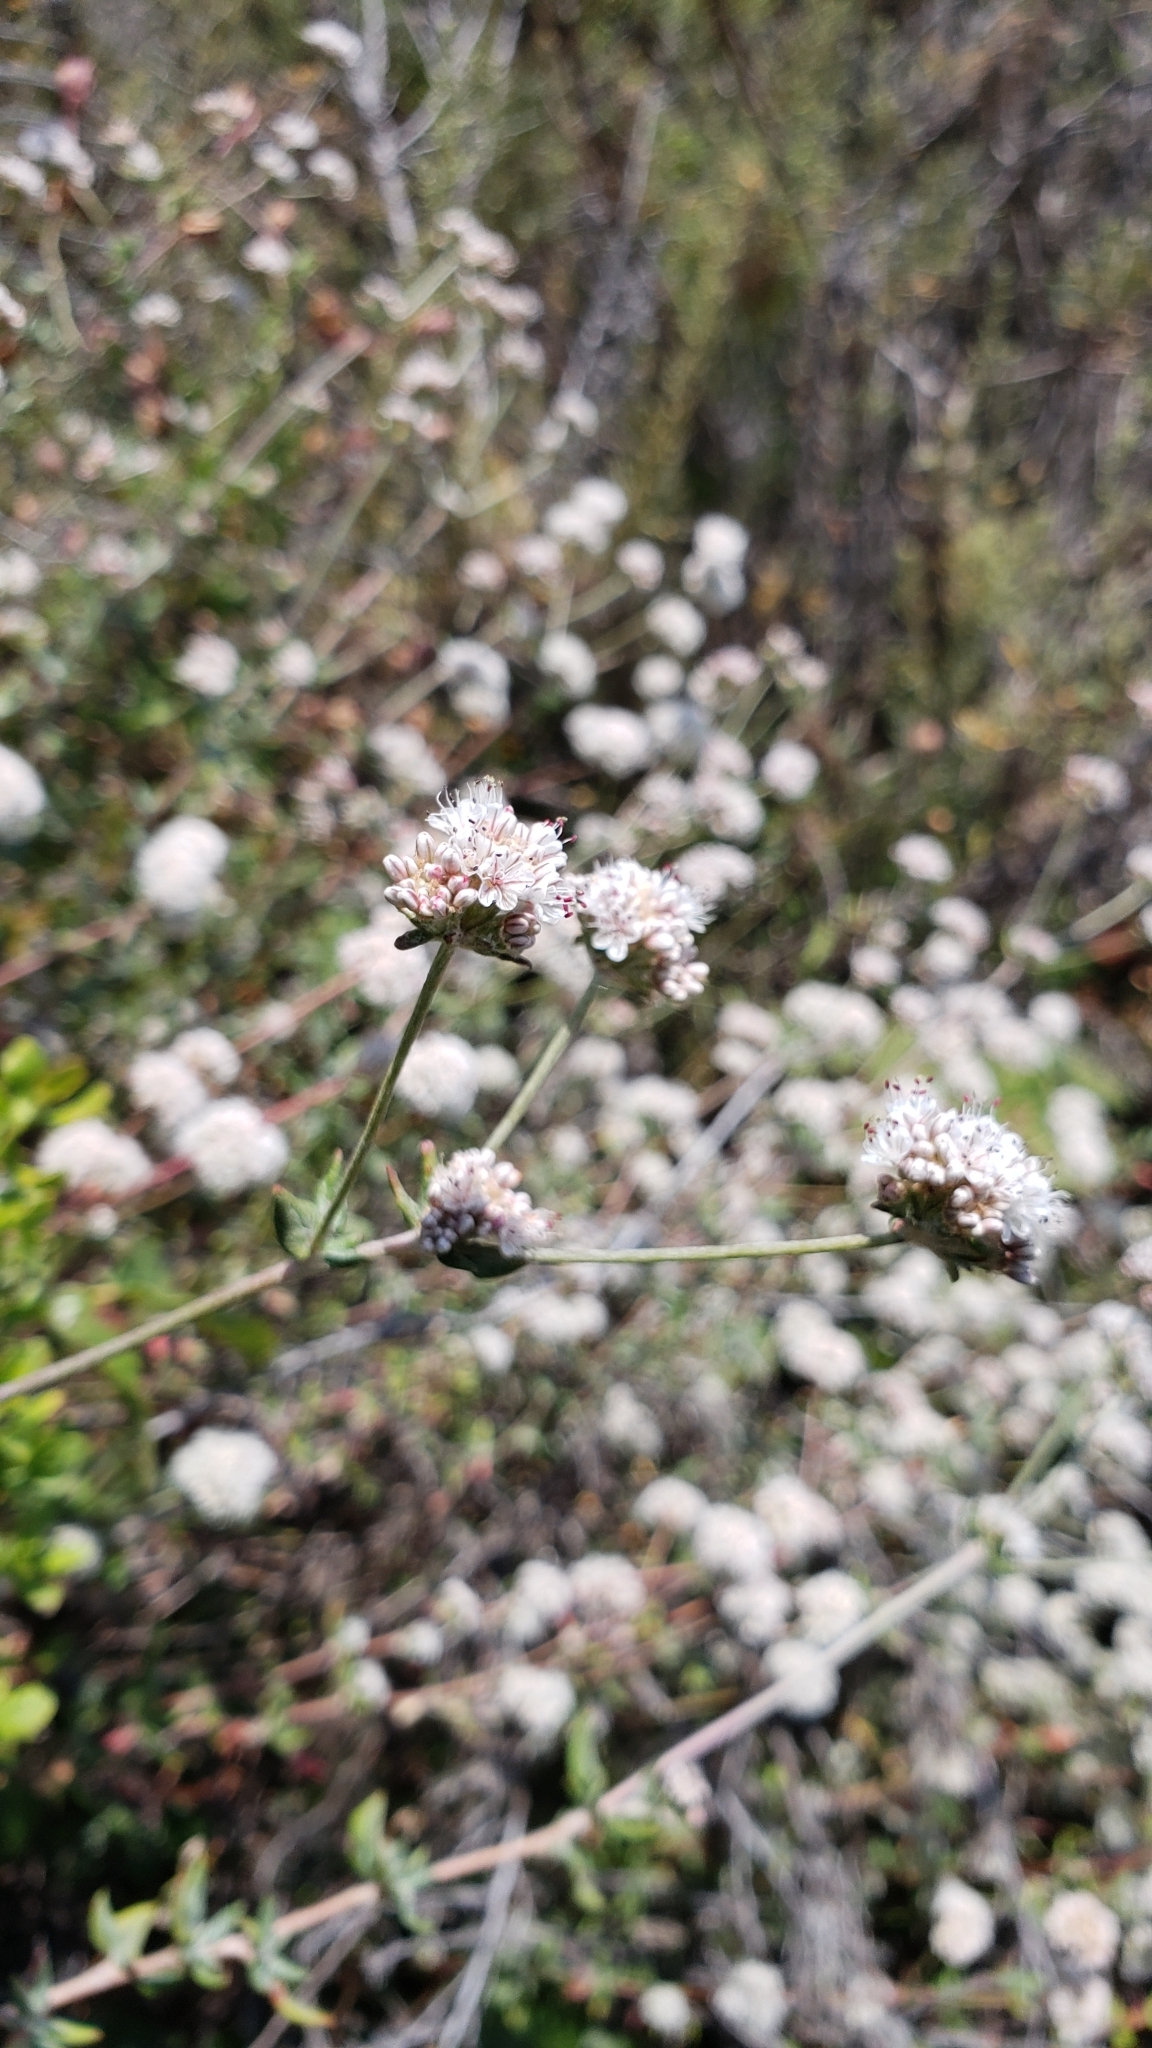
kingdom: Plantae
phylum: Tracheophyta
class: Magnoliopsida
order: Caryophyllales
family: Polygonaceae
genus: Eriogonum
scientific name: Eriogonum parvifolium
